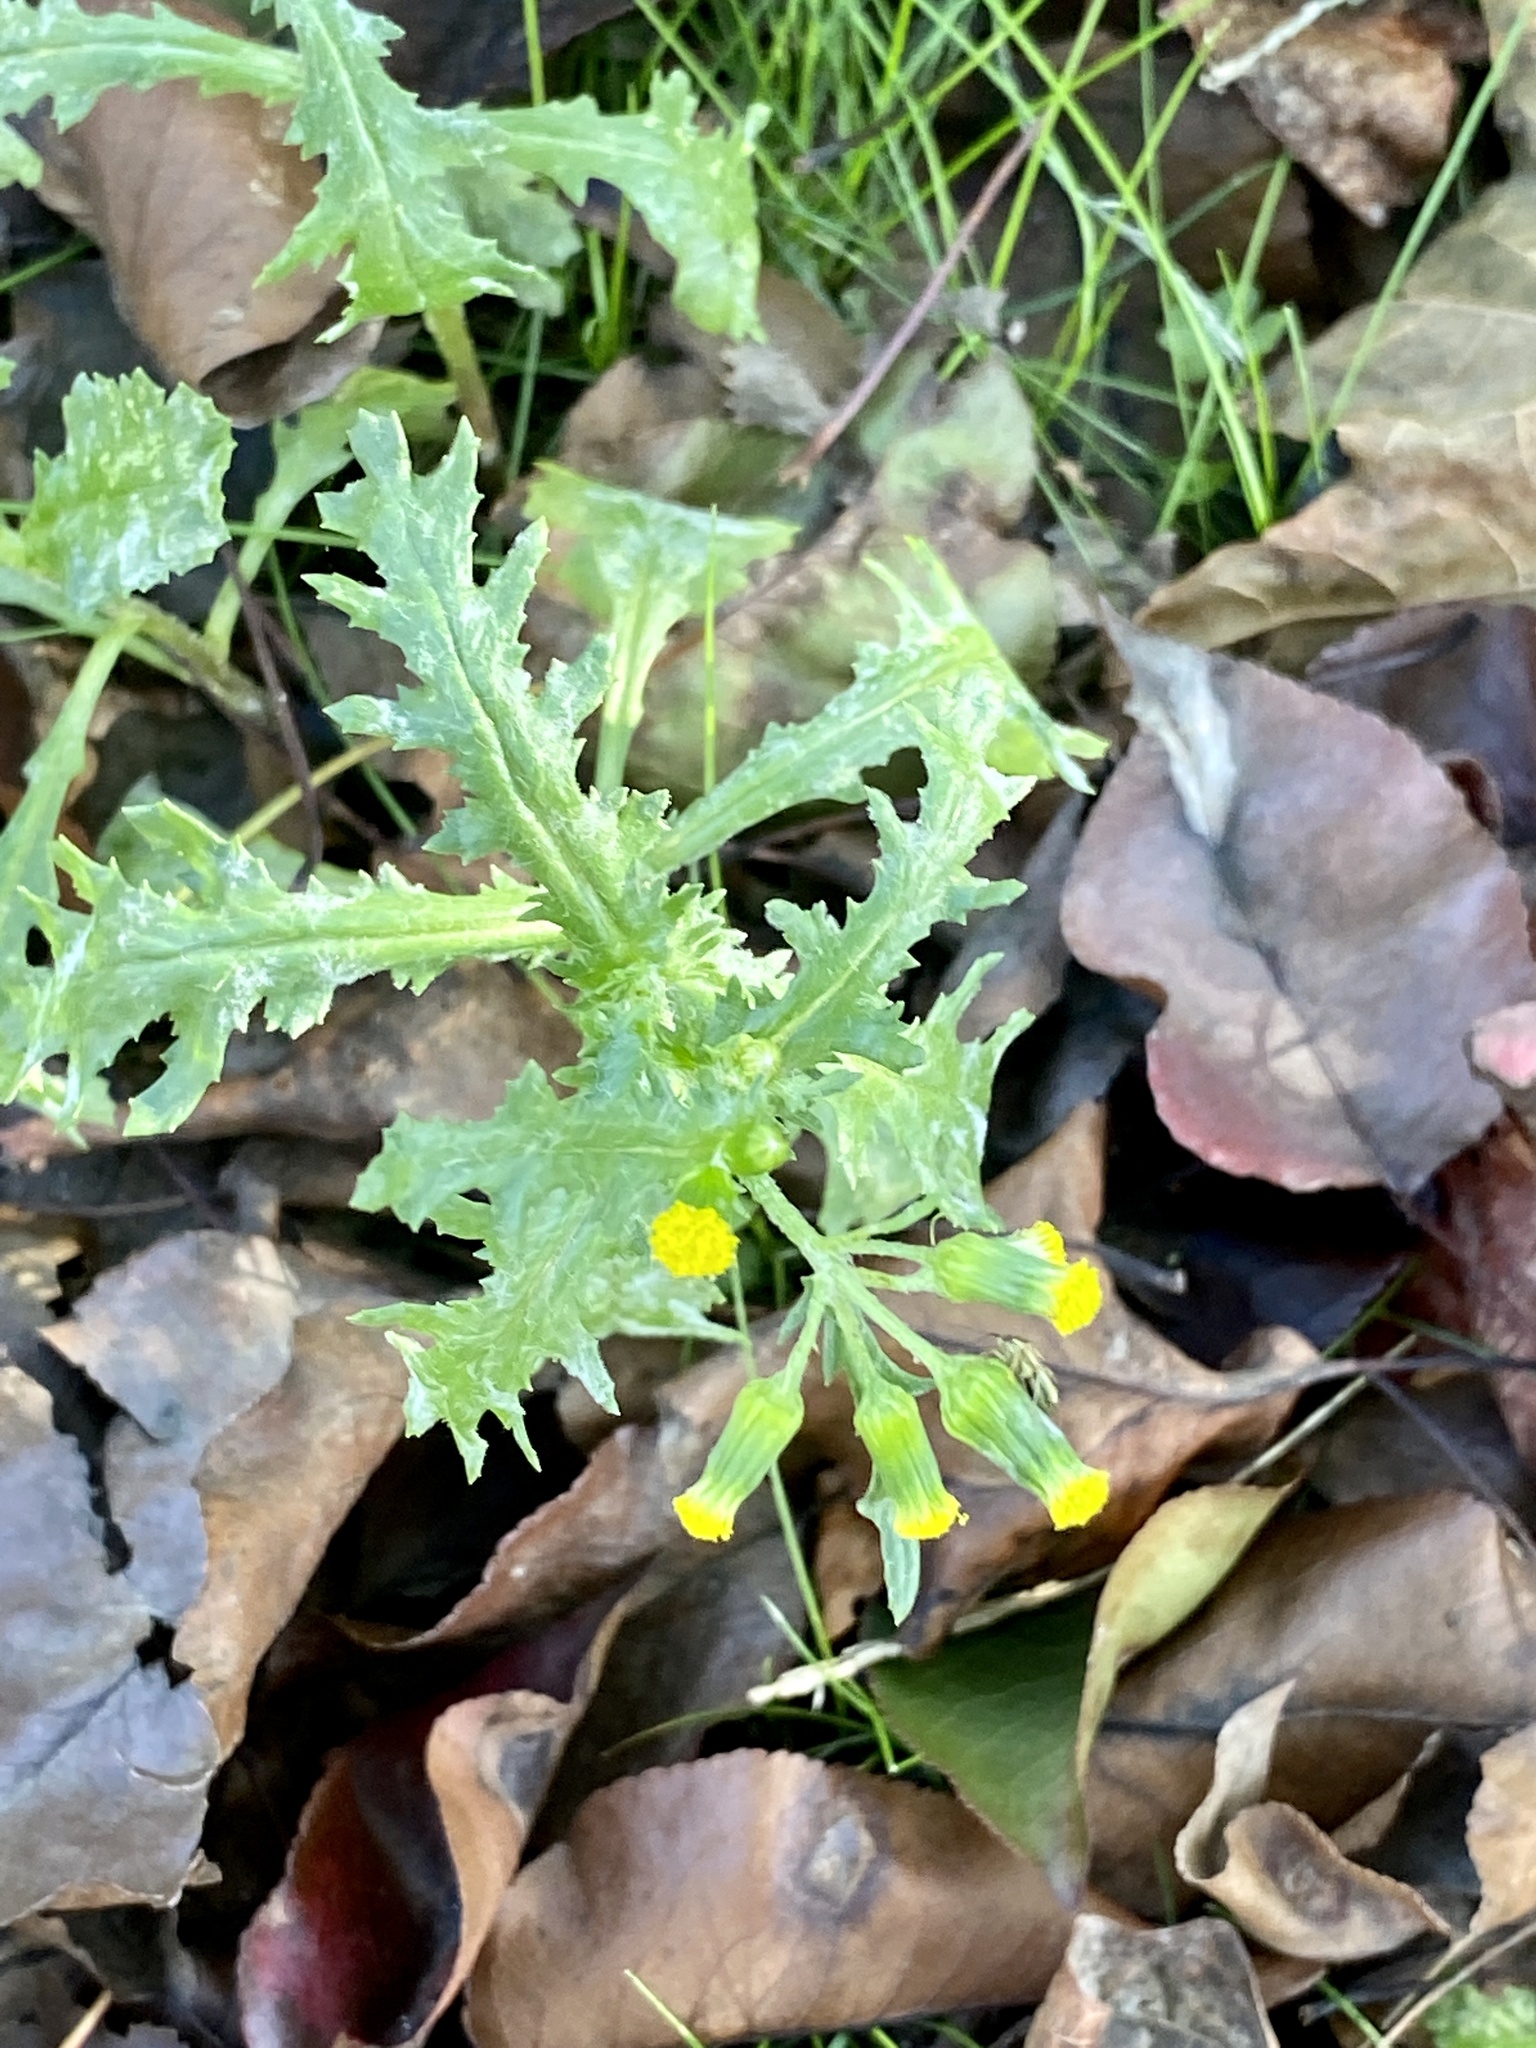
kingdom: Plantae
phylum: Tracheophyta
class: Magnoliopsida
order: Asterales
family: Asteraceae
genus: Senecio
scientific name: Senecio vulgaris
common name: Old-man-in-the-spring
